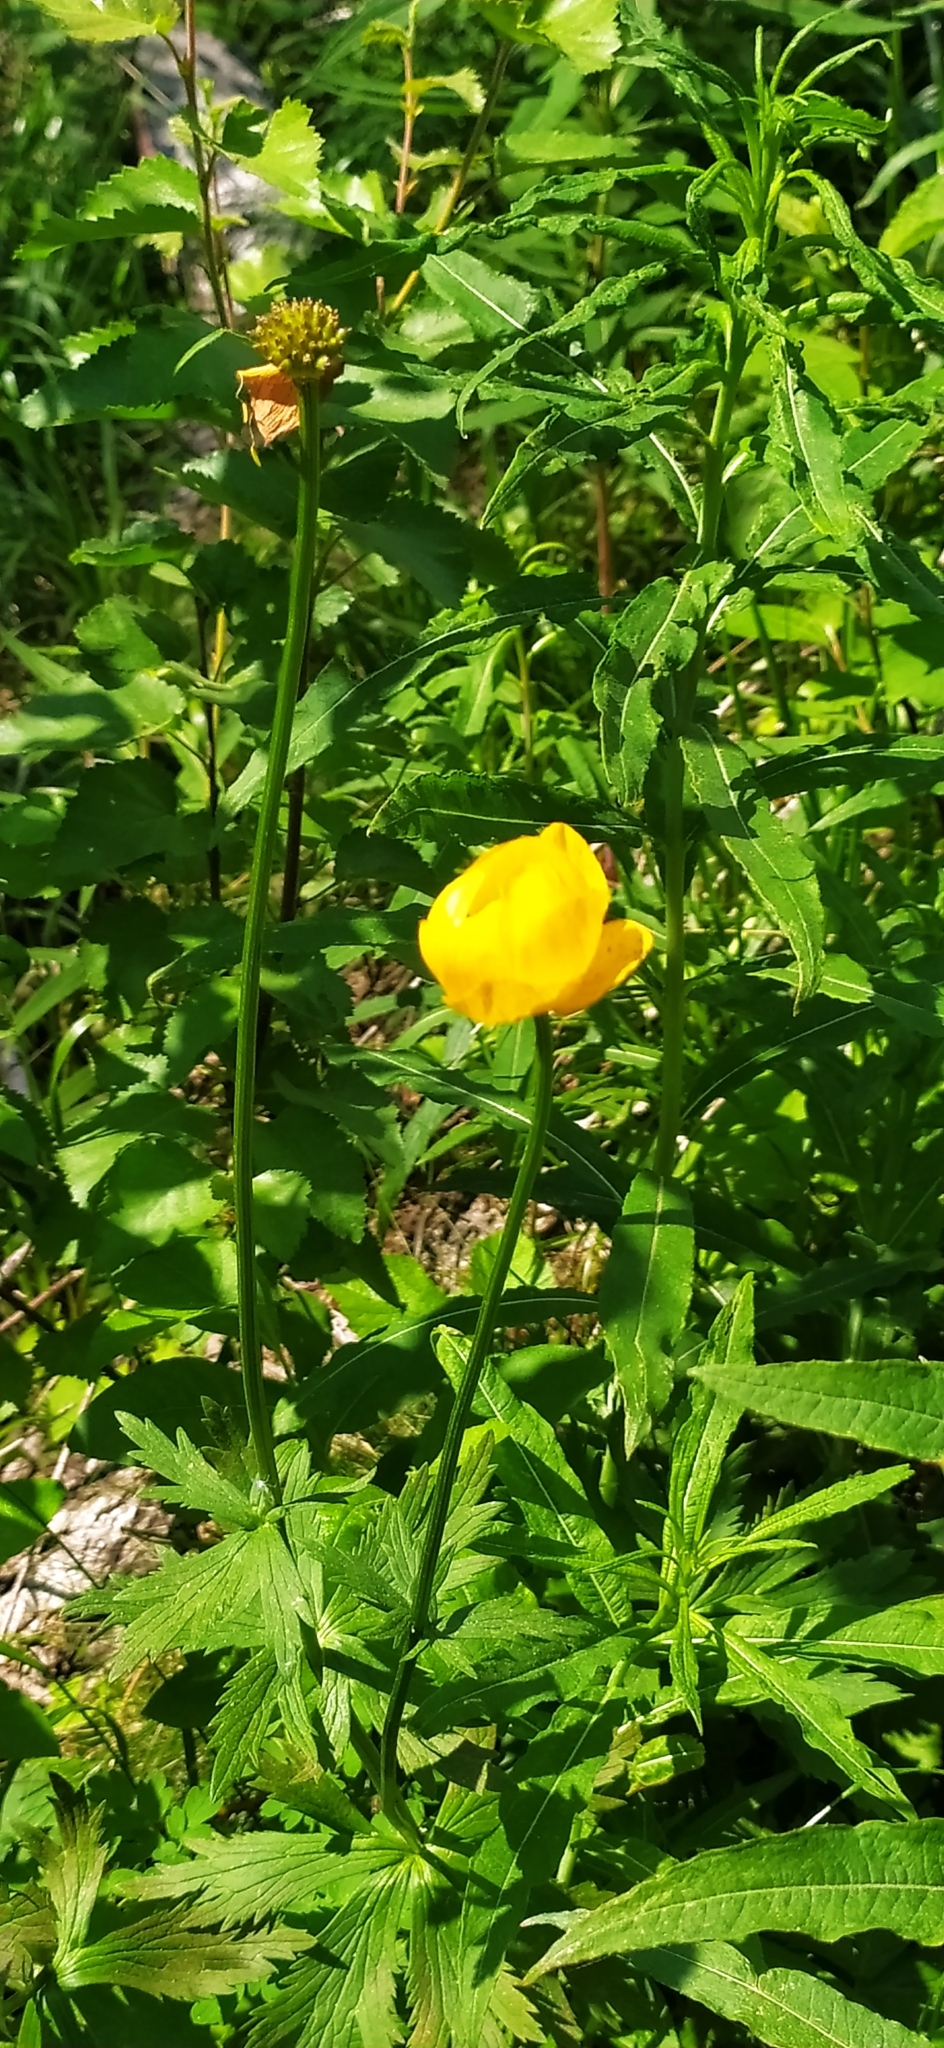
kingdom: Plantae
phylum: Tracheophyta
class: Magnoliopsida
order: Ranunculales
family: Ranunculaceae
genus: Trollius
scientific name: Trollius europaeus
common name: European globeflower
